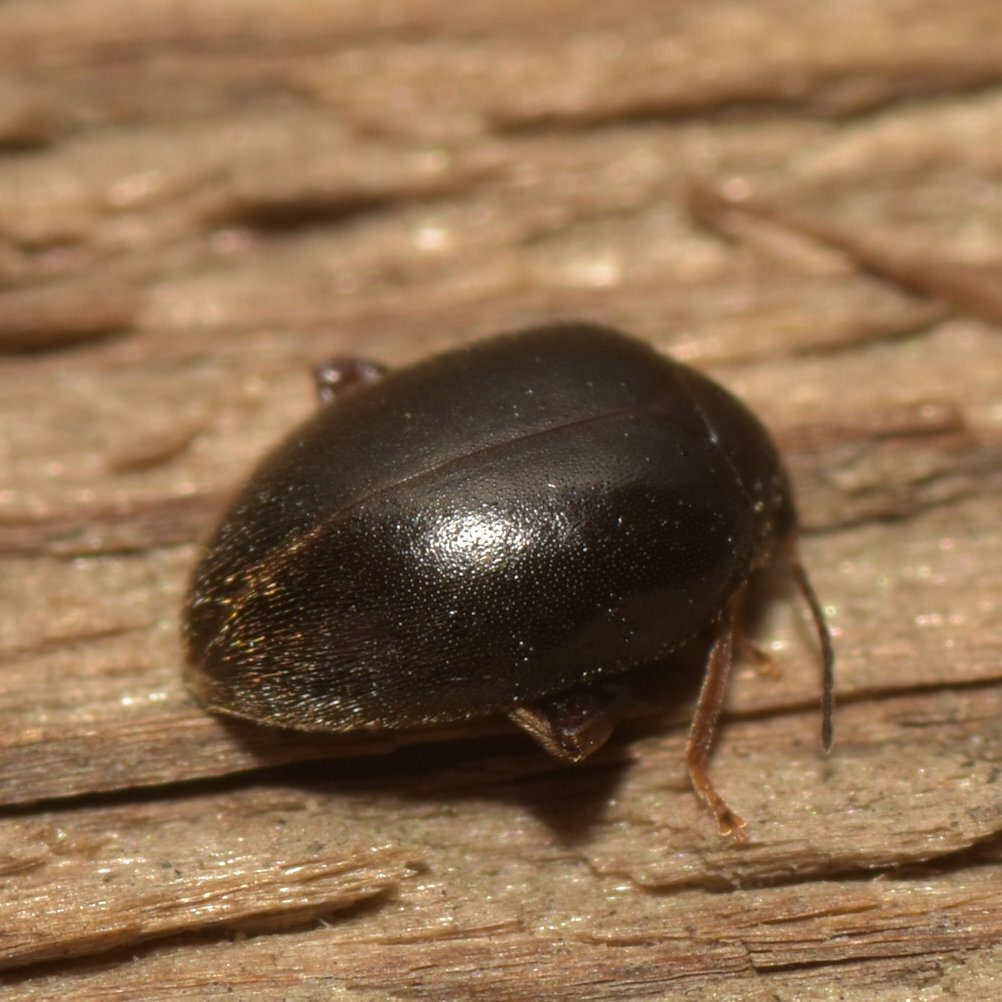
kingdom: Animalia
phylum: Arthropoda
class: Insecta
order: Coleoptera
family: Scirtidae
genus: Scirtes
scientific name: Scirtes tibialis
